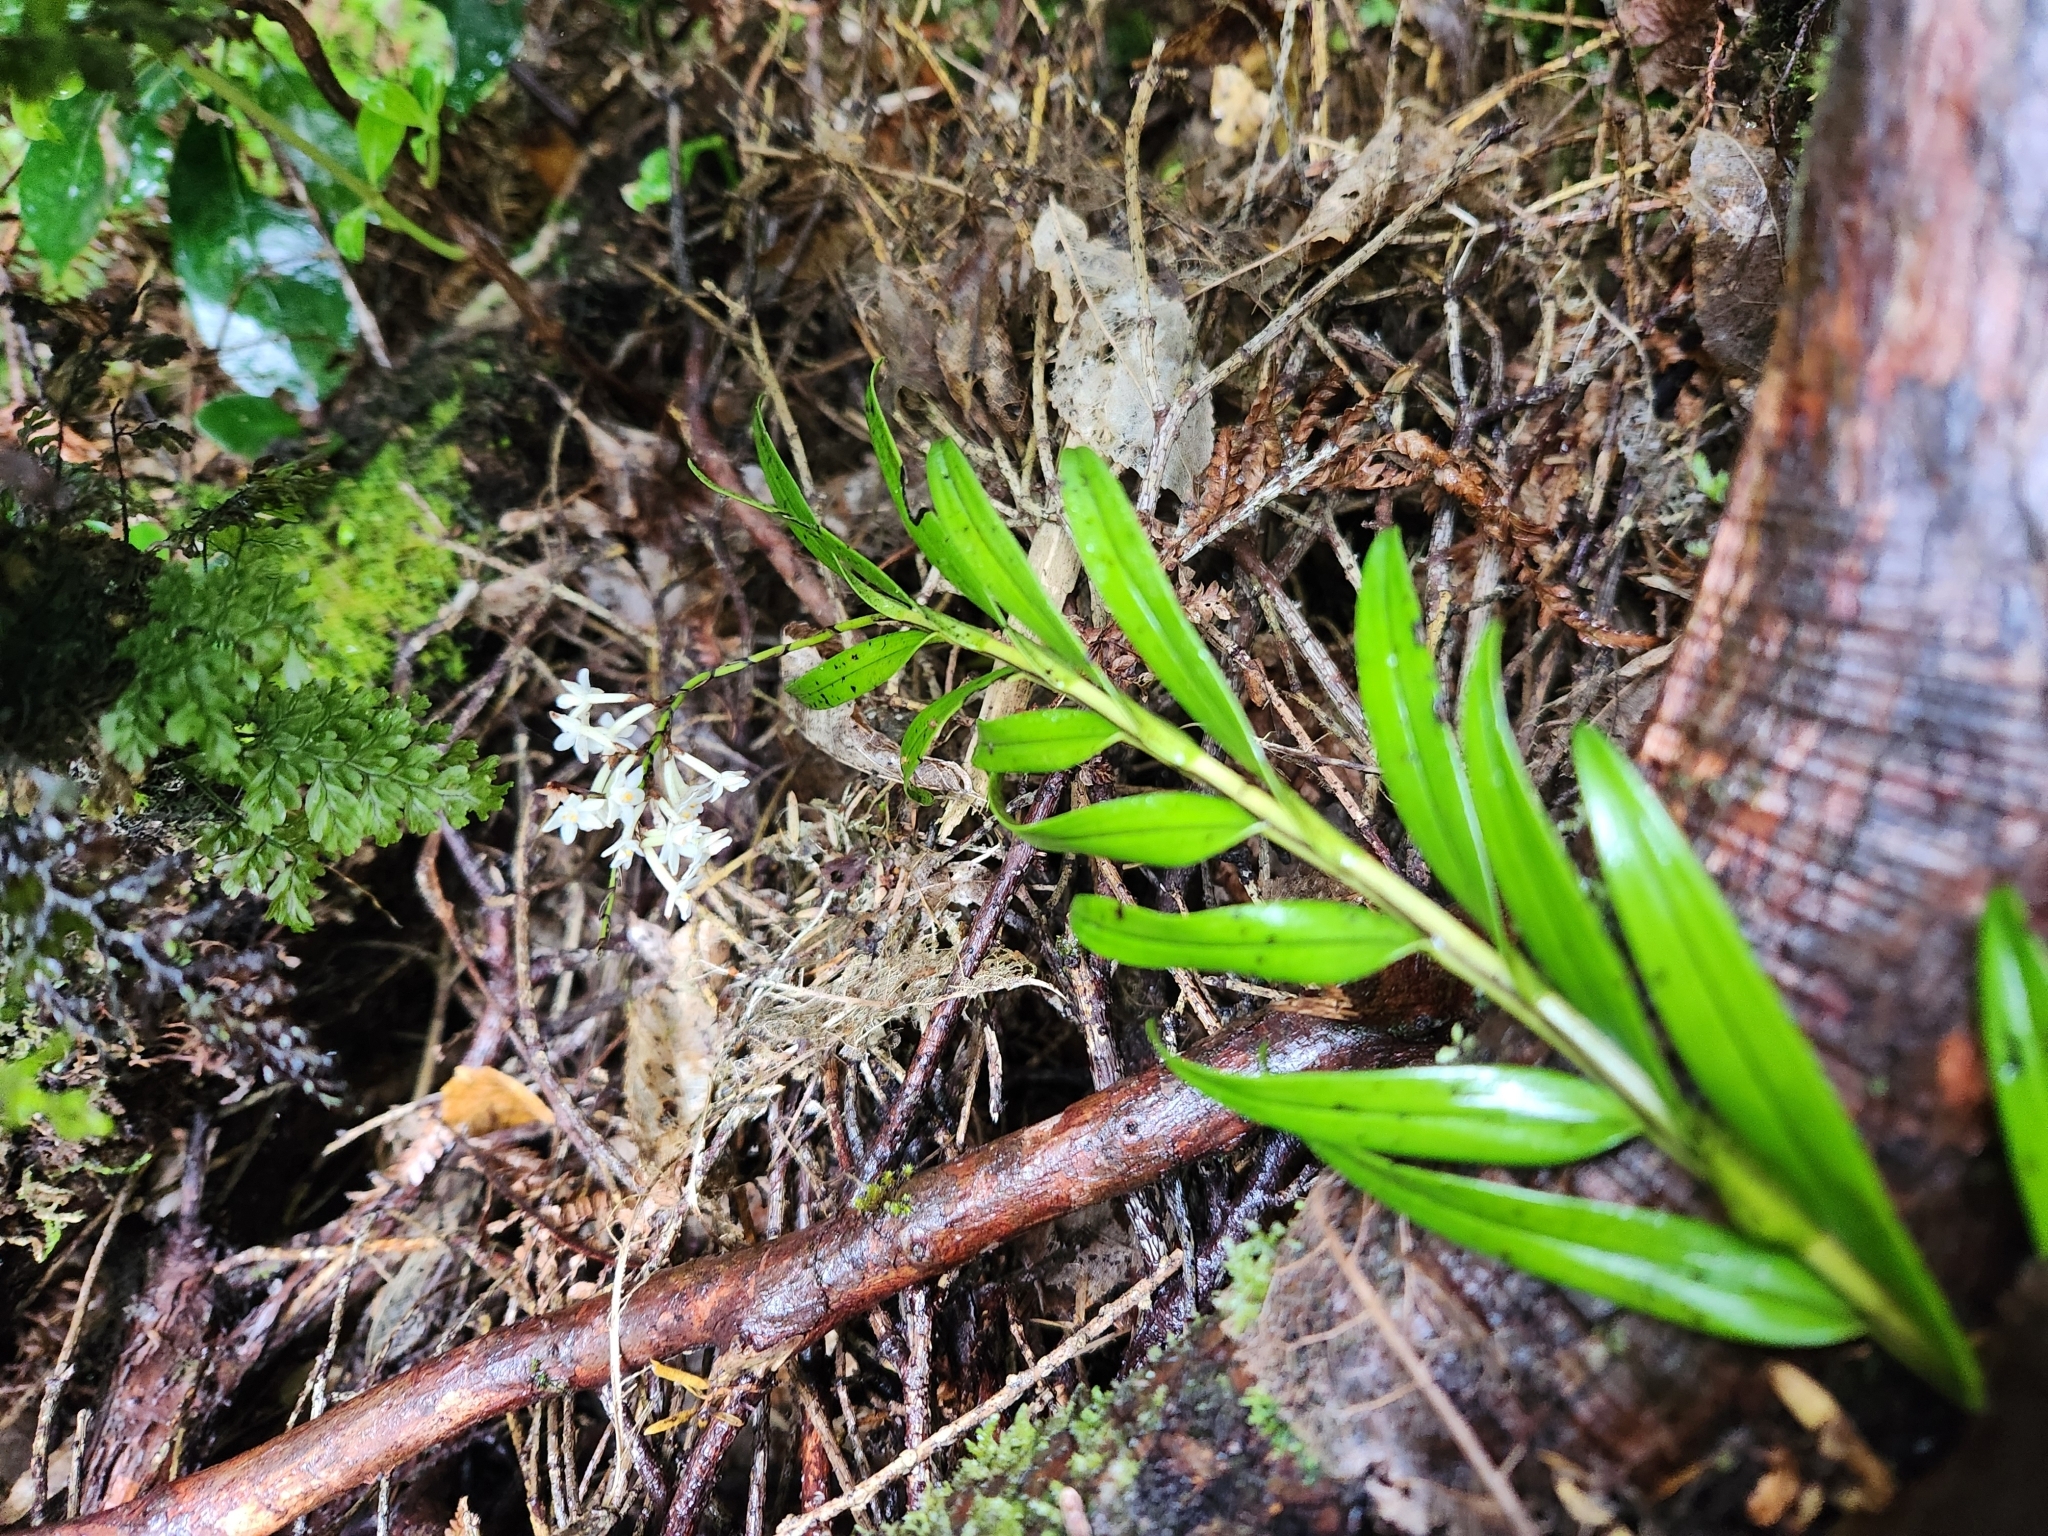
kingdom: Plantae
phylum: Tracheophyta
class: Liliopsida
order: Asparagales
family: Orchidaceae
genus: Earina
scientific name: Earina autumnalis
